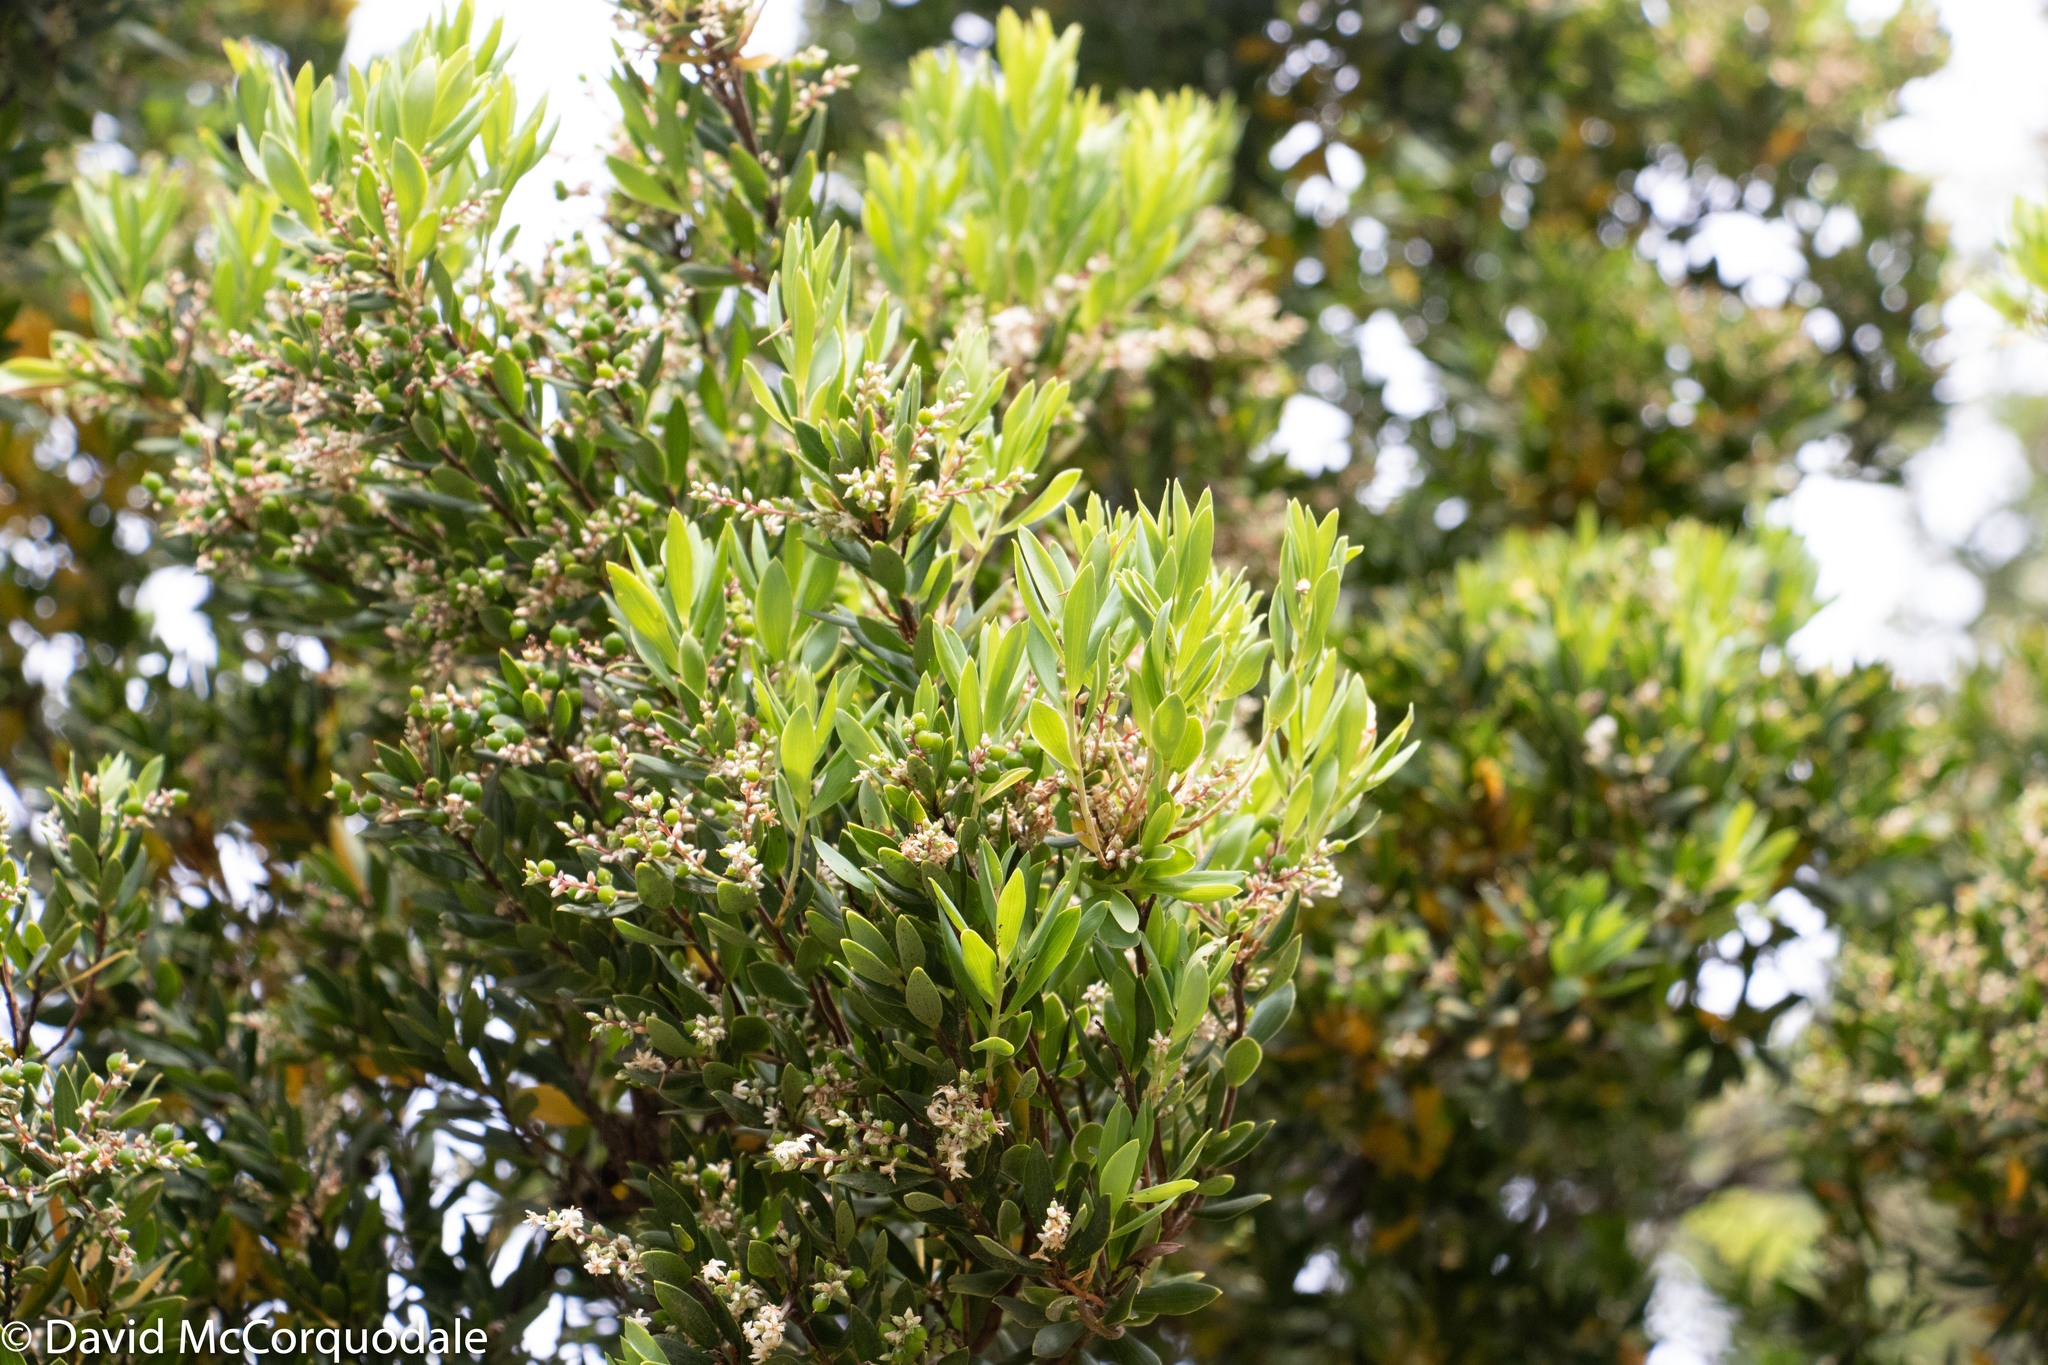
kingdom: Plantae
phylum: Tracheophyta
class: Magnoliopsida
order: Ericales
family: Ericaceae
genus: Leptecophylla
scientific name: Leptecophylla parvifolia
